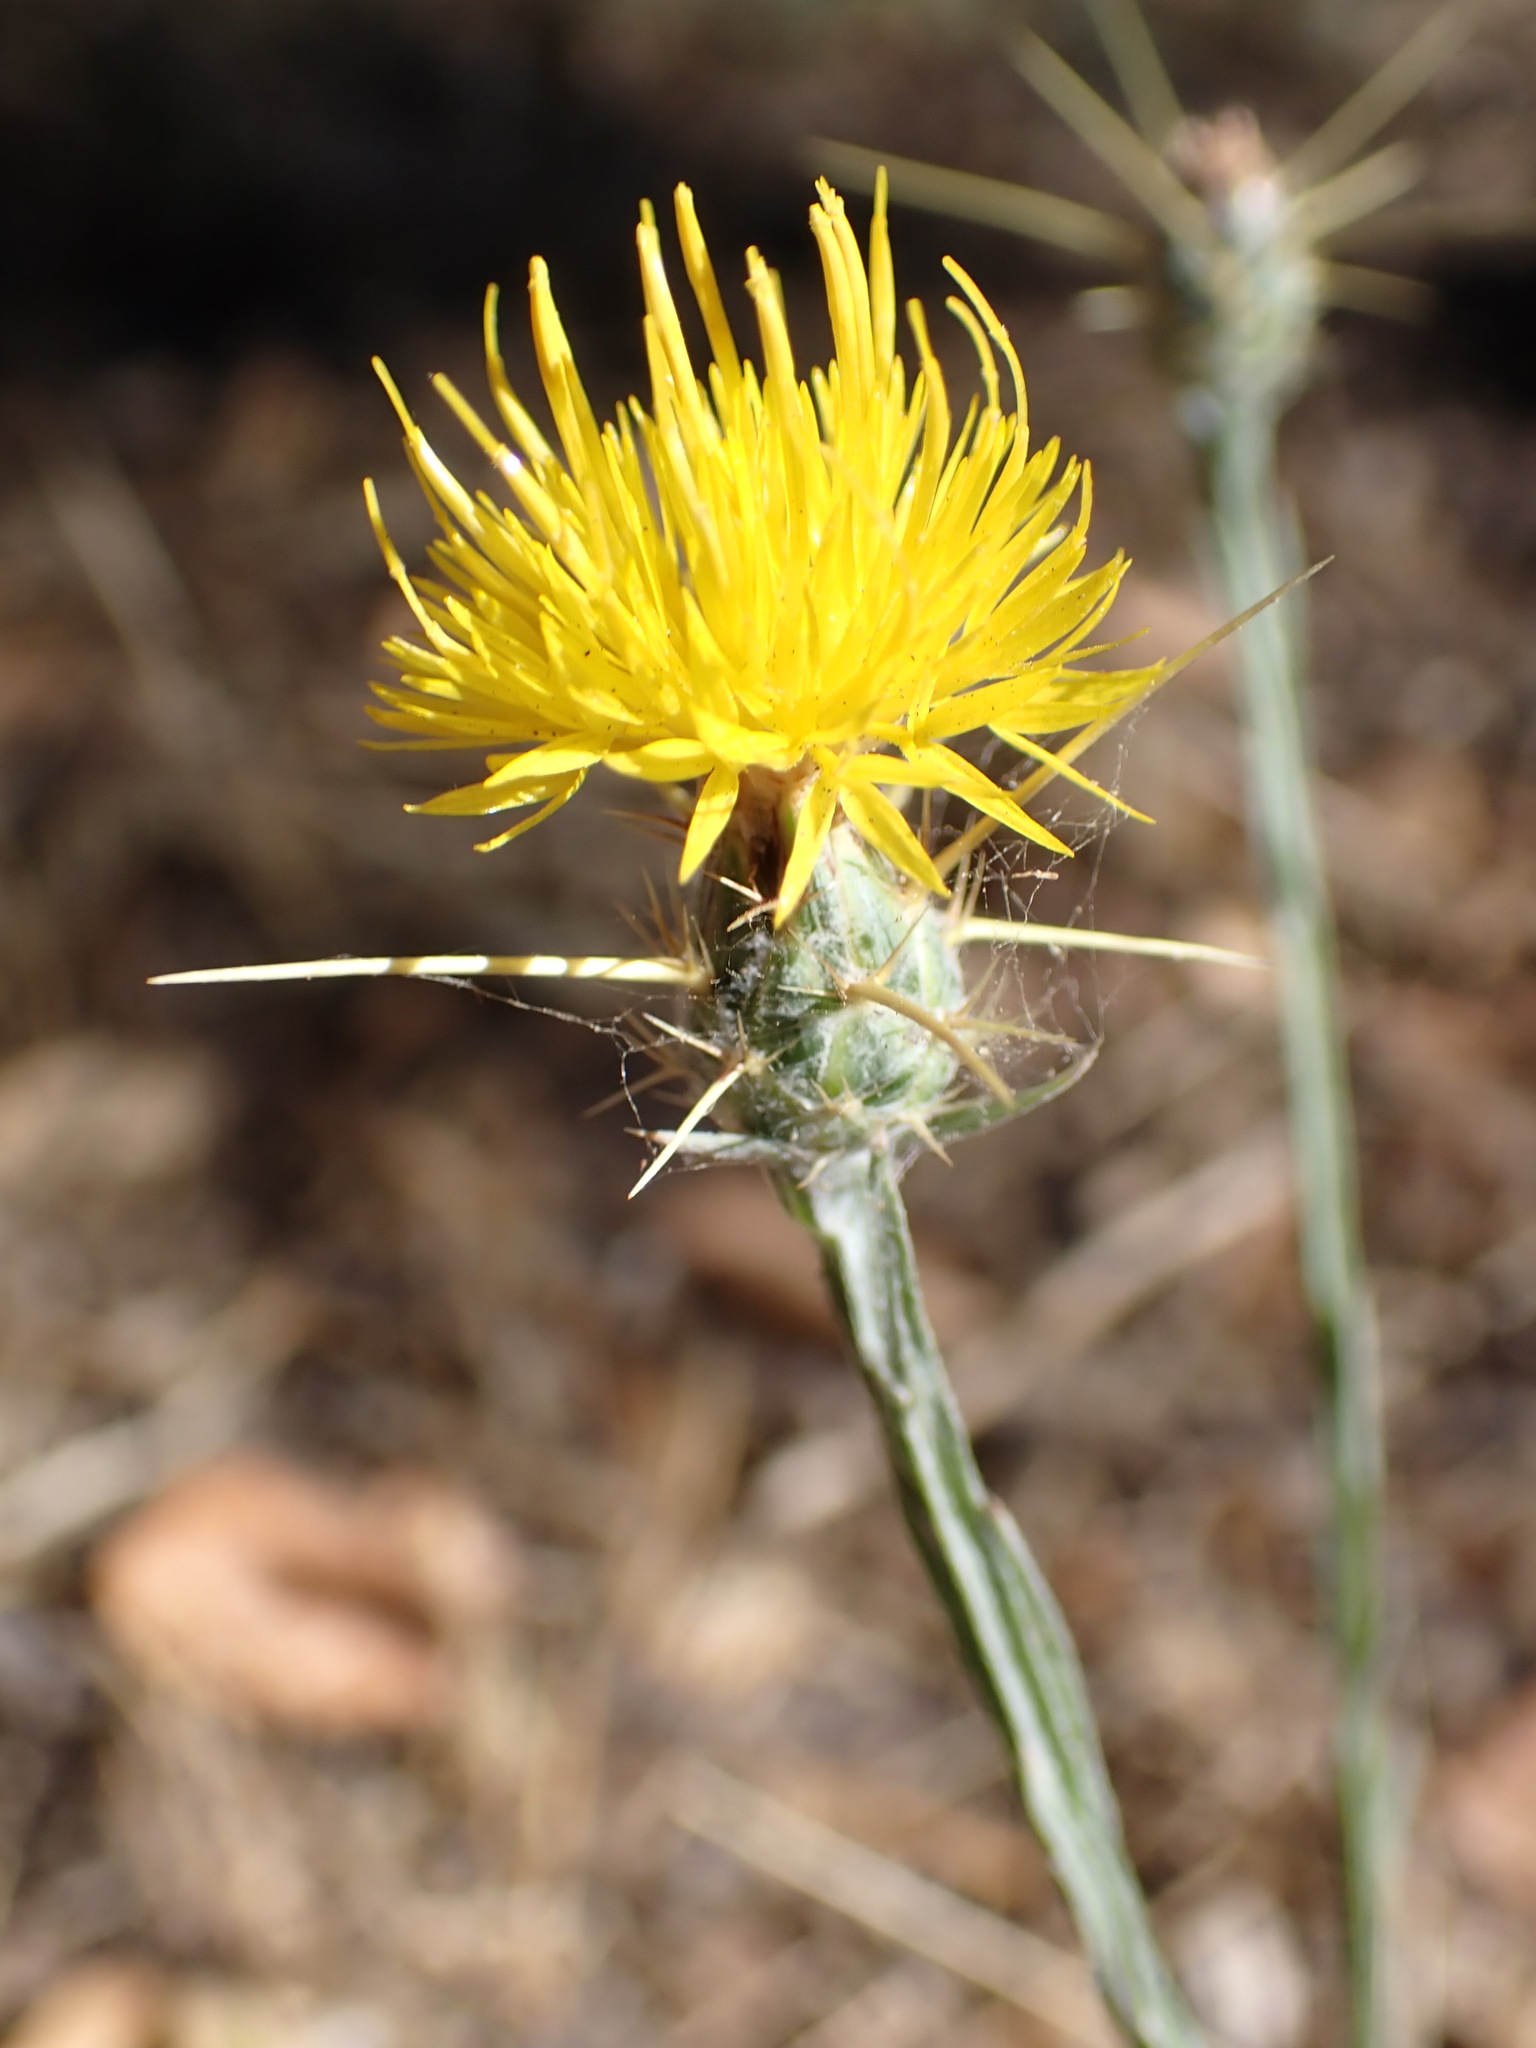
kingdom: Plantae
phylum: Tracheophyta
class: Magnoliopsida
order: Asterales
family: Asteraceae
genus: Centaurea
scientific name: Centaurea solstitialis
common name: Yellow star-thistle
